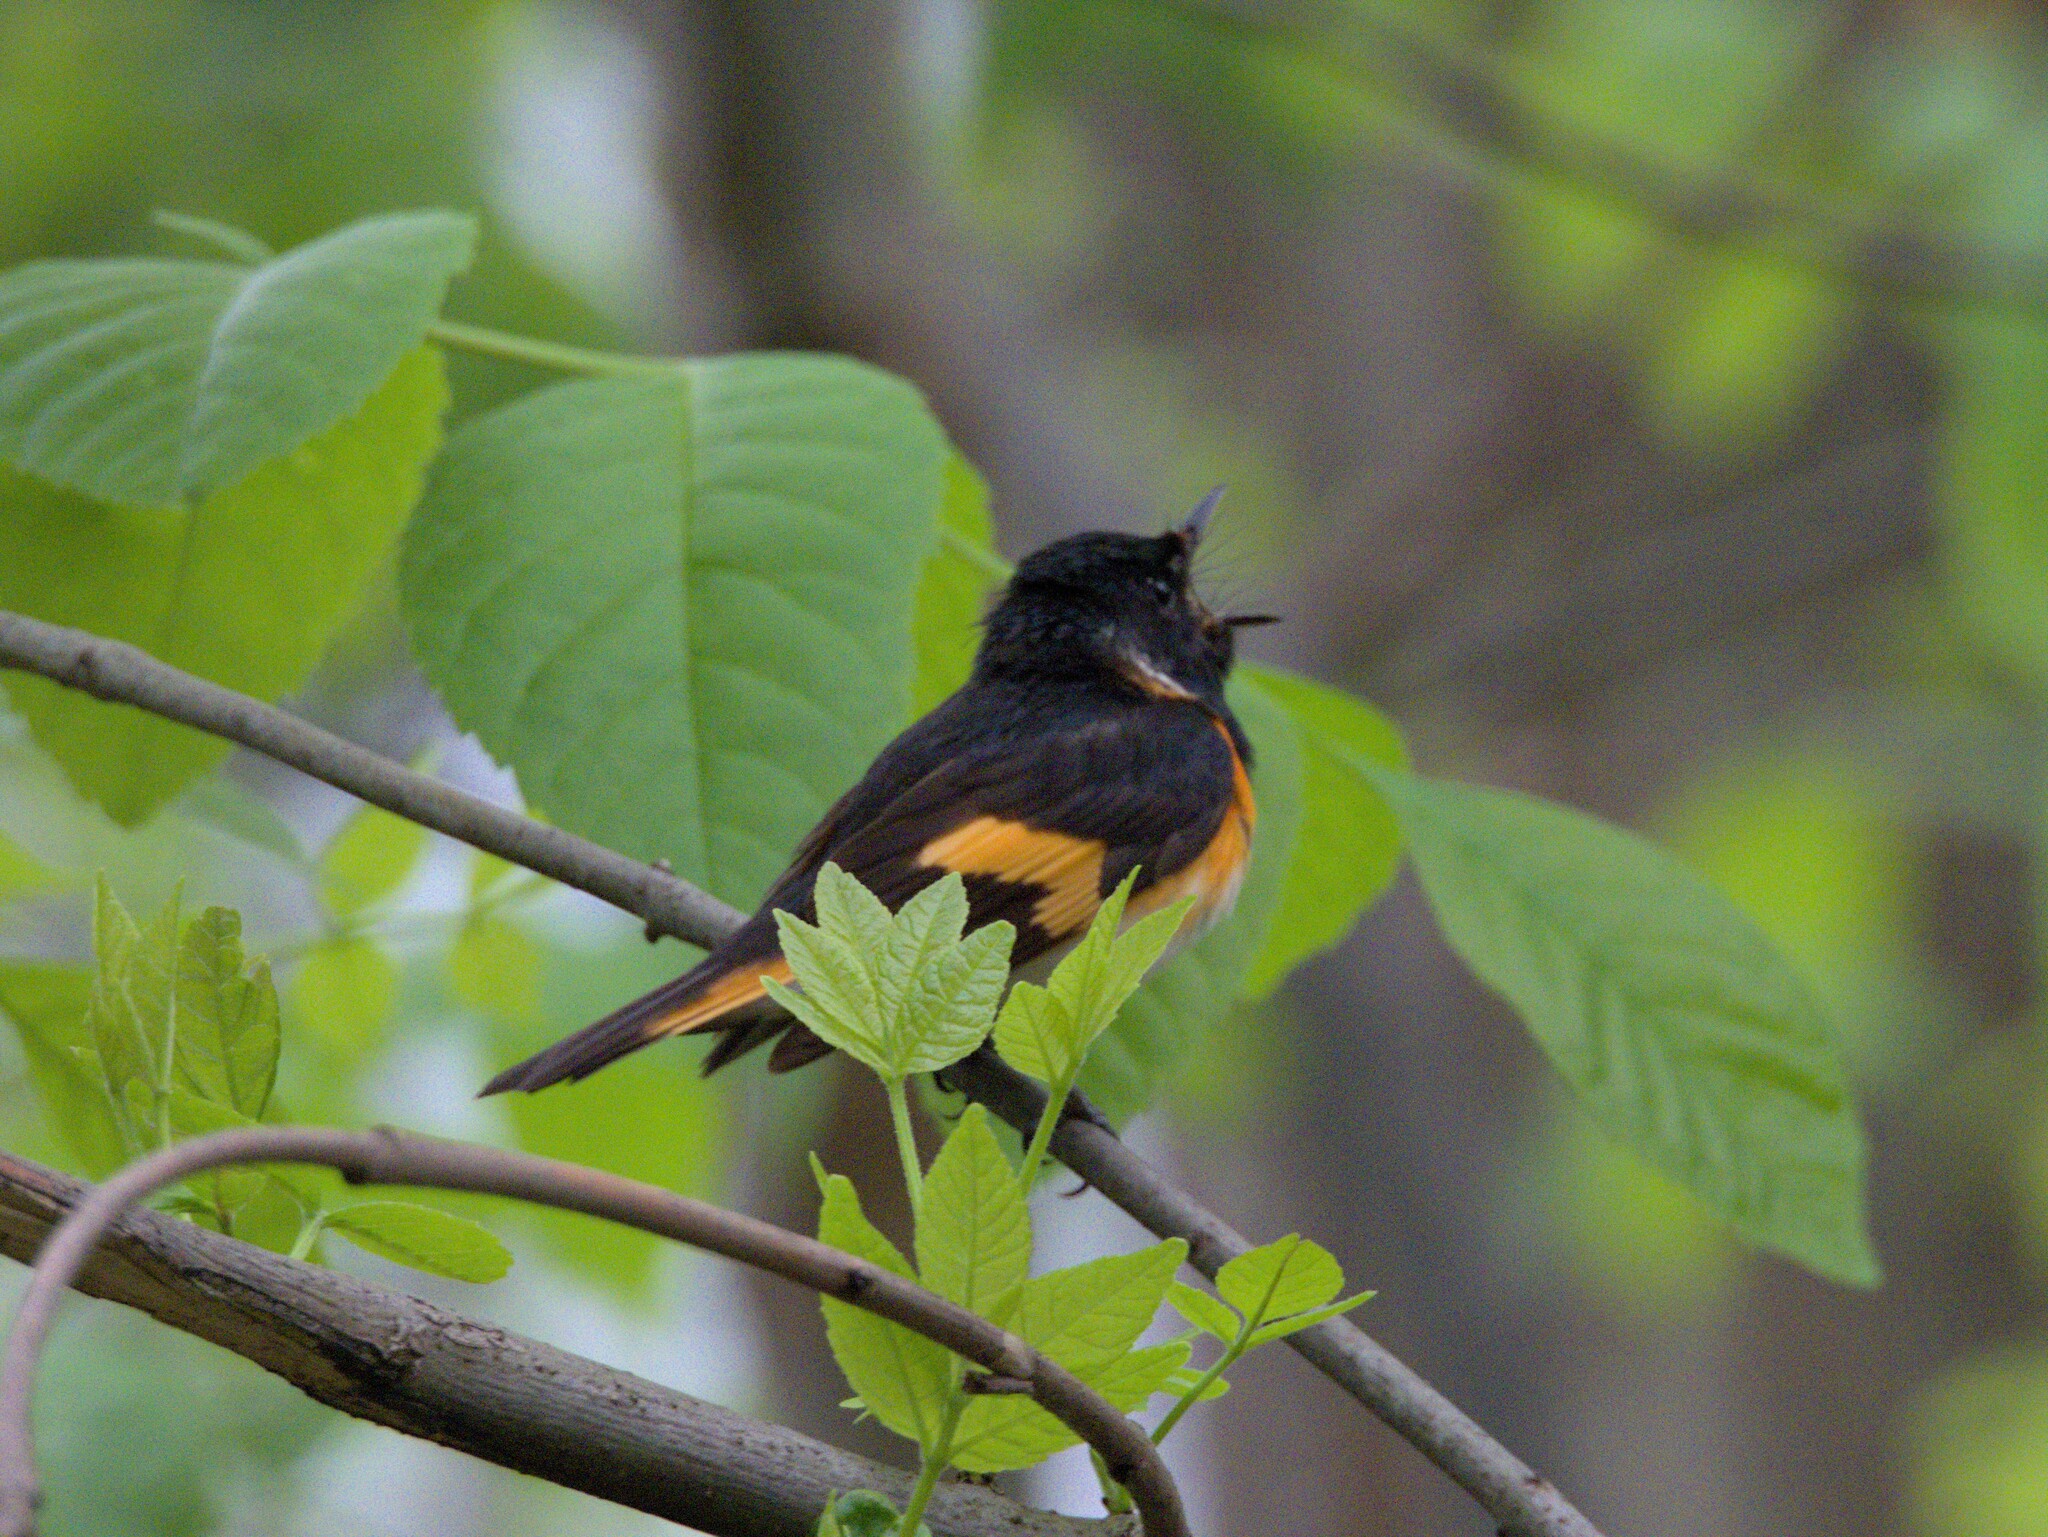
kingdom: Animalia
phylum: Chordata
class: Aves
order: Passeriformes
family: Parulidae
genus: Setophaga
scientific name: Setophaga ruticilla
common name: American redstart
